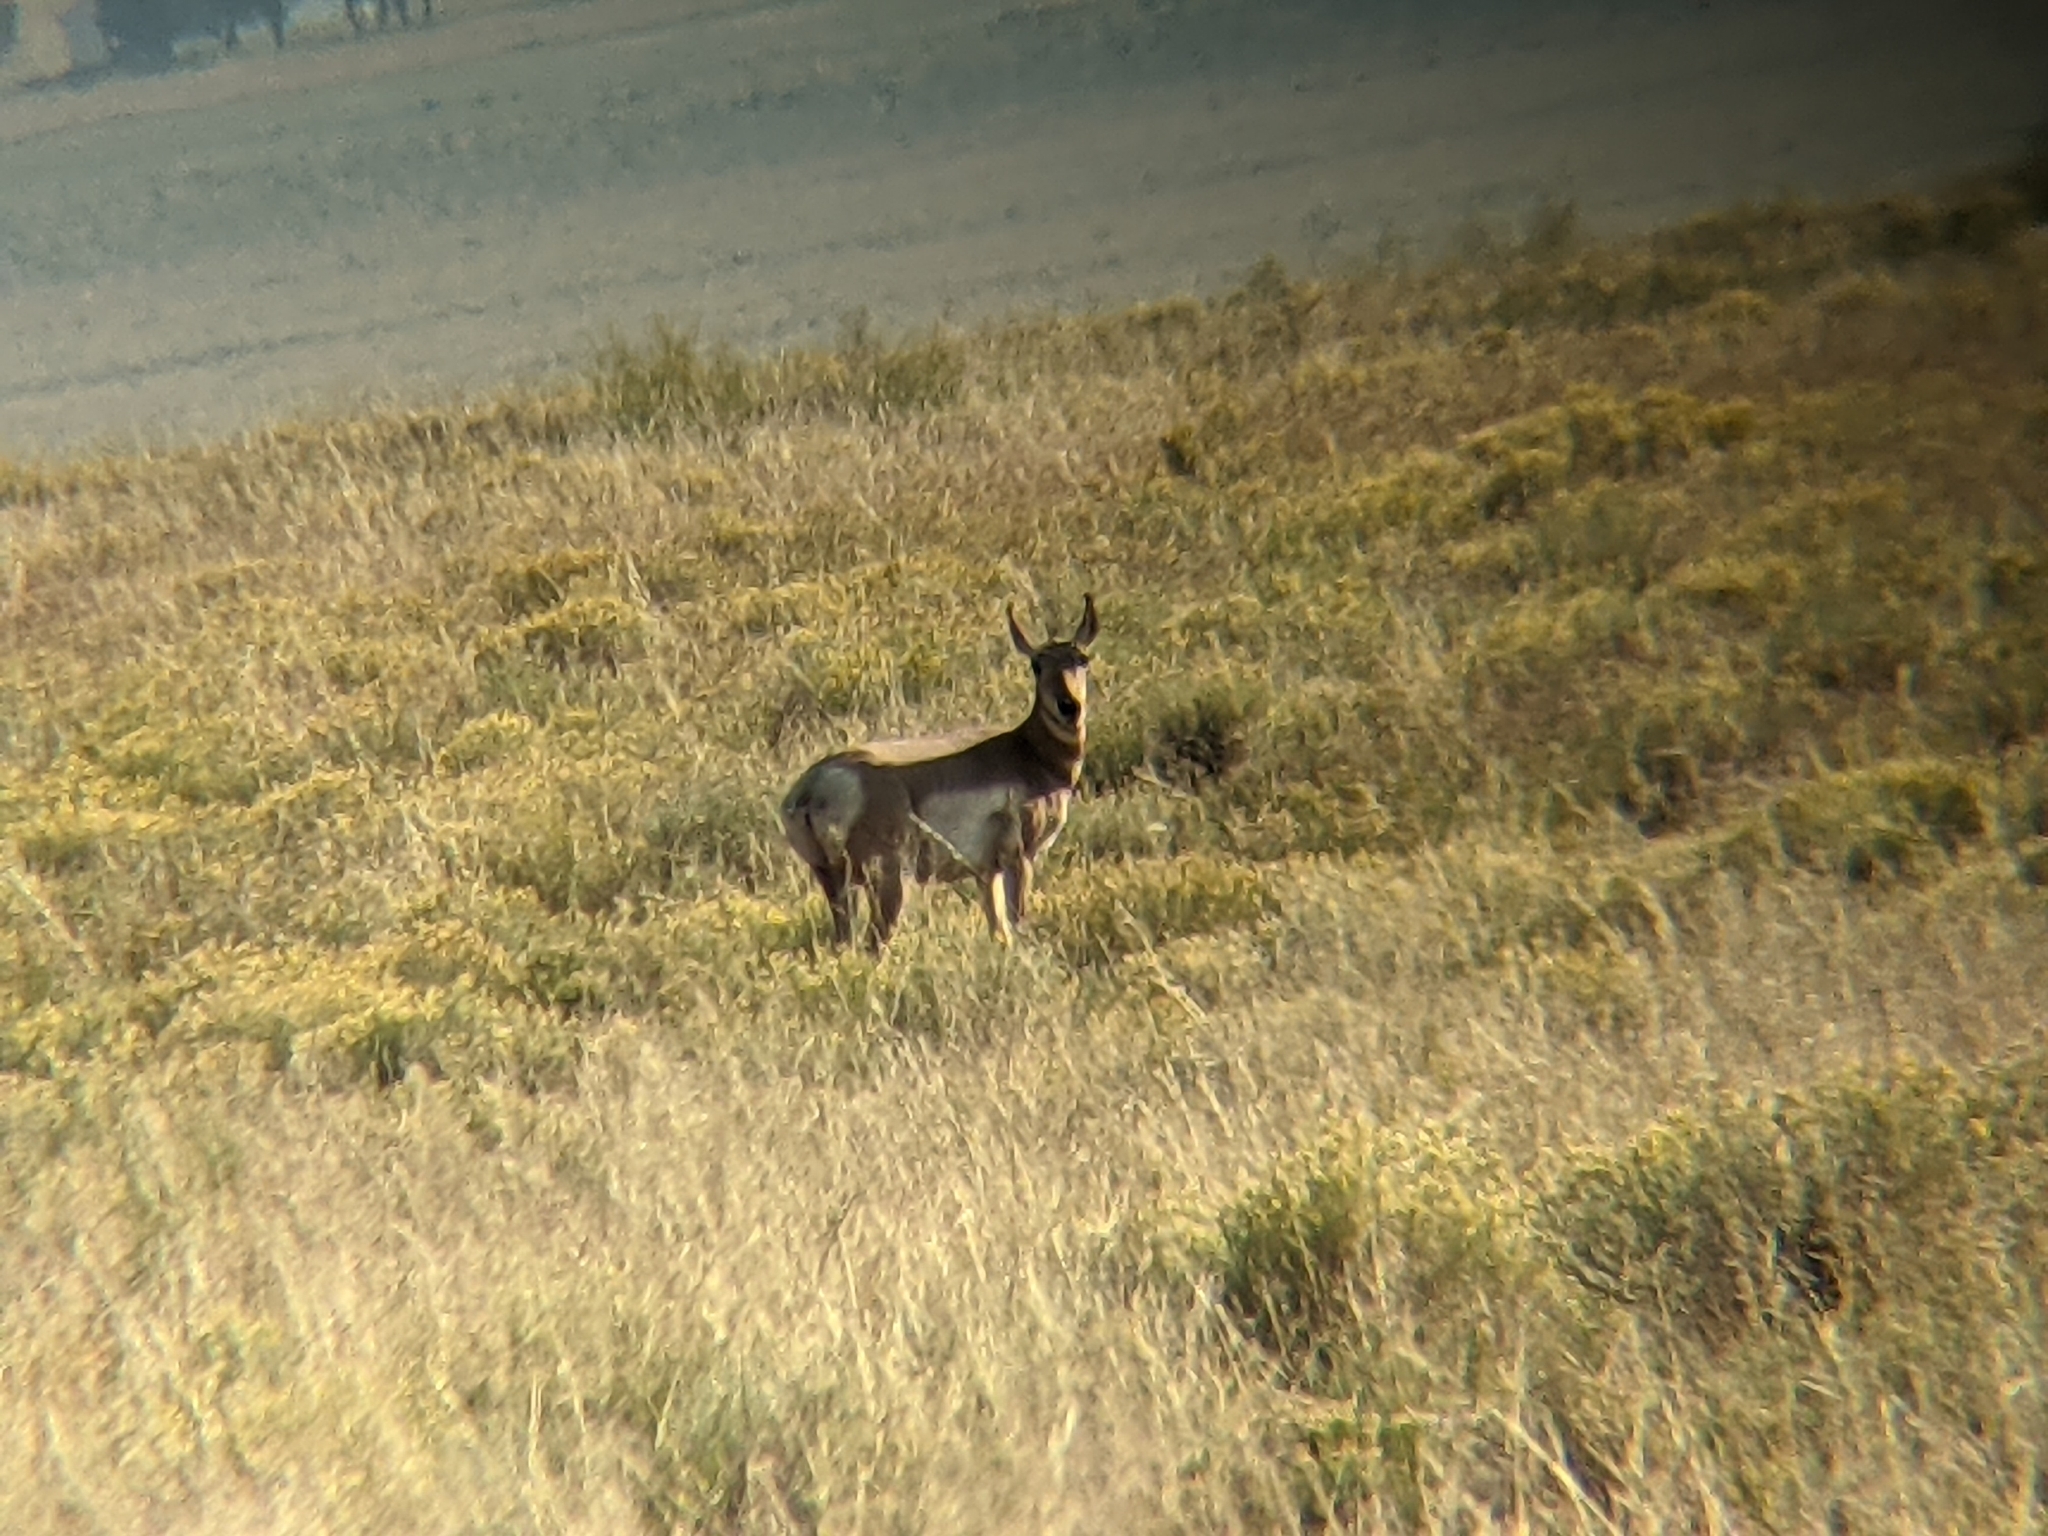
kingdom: Animalia
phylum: Chordata
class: Mammalia
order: Artiodactyla
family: Antilocapridae
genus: Antilocapra
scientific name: Antilocapra americana
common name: Pronghorn
